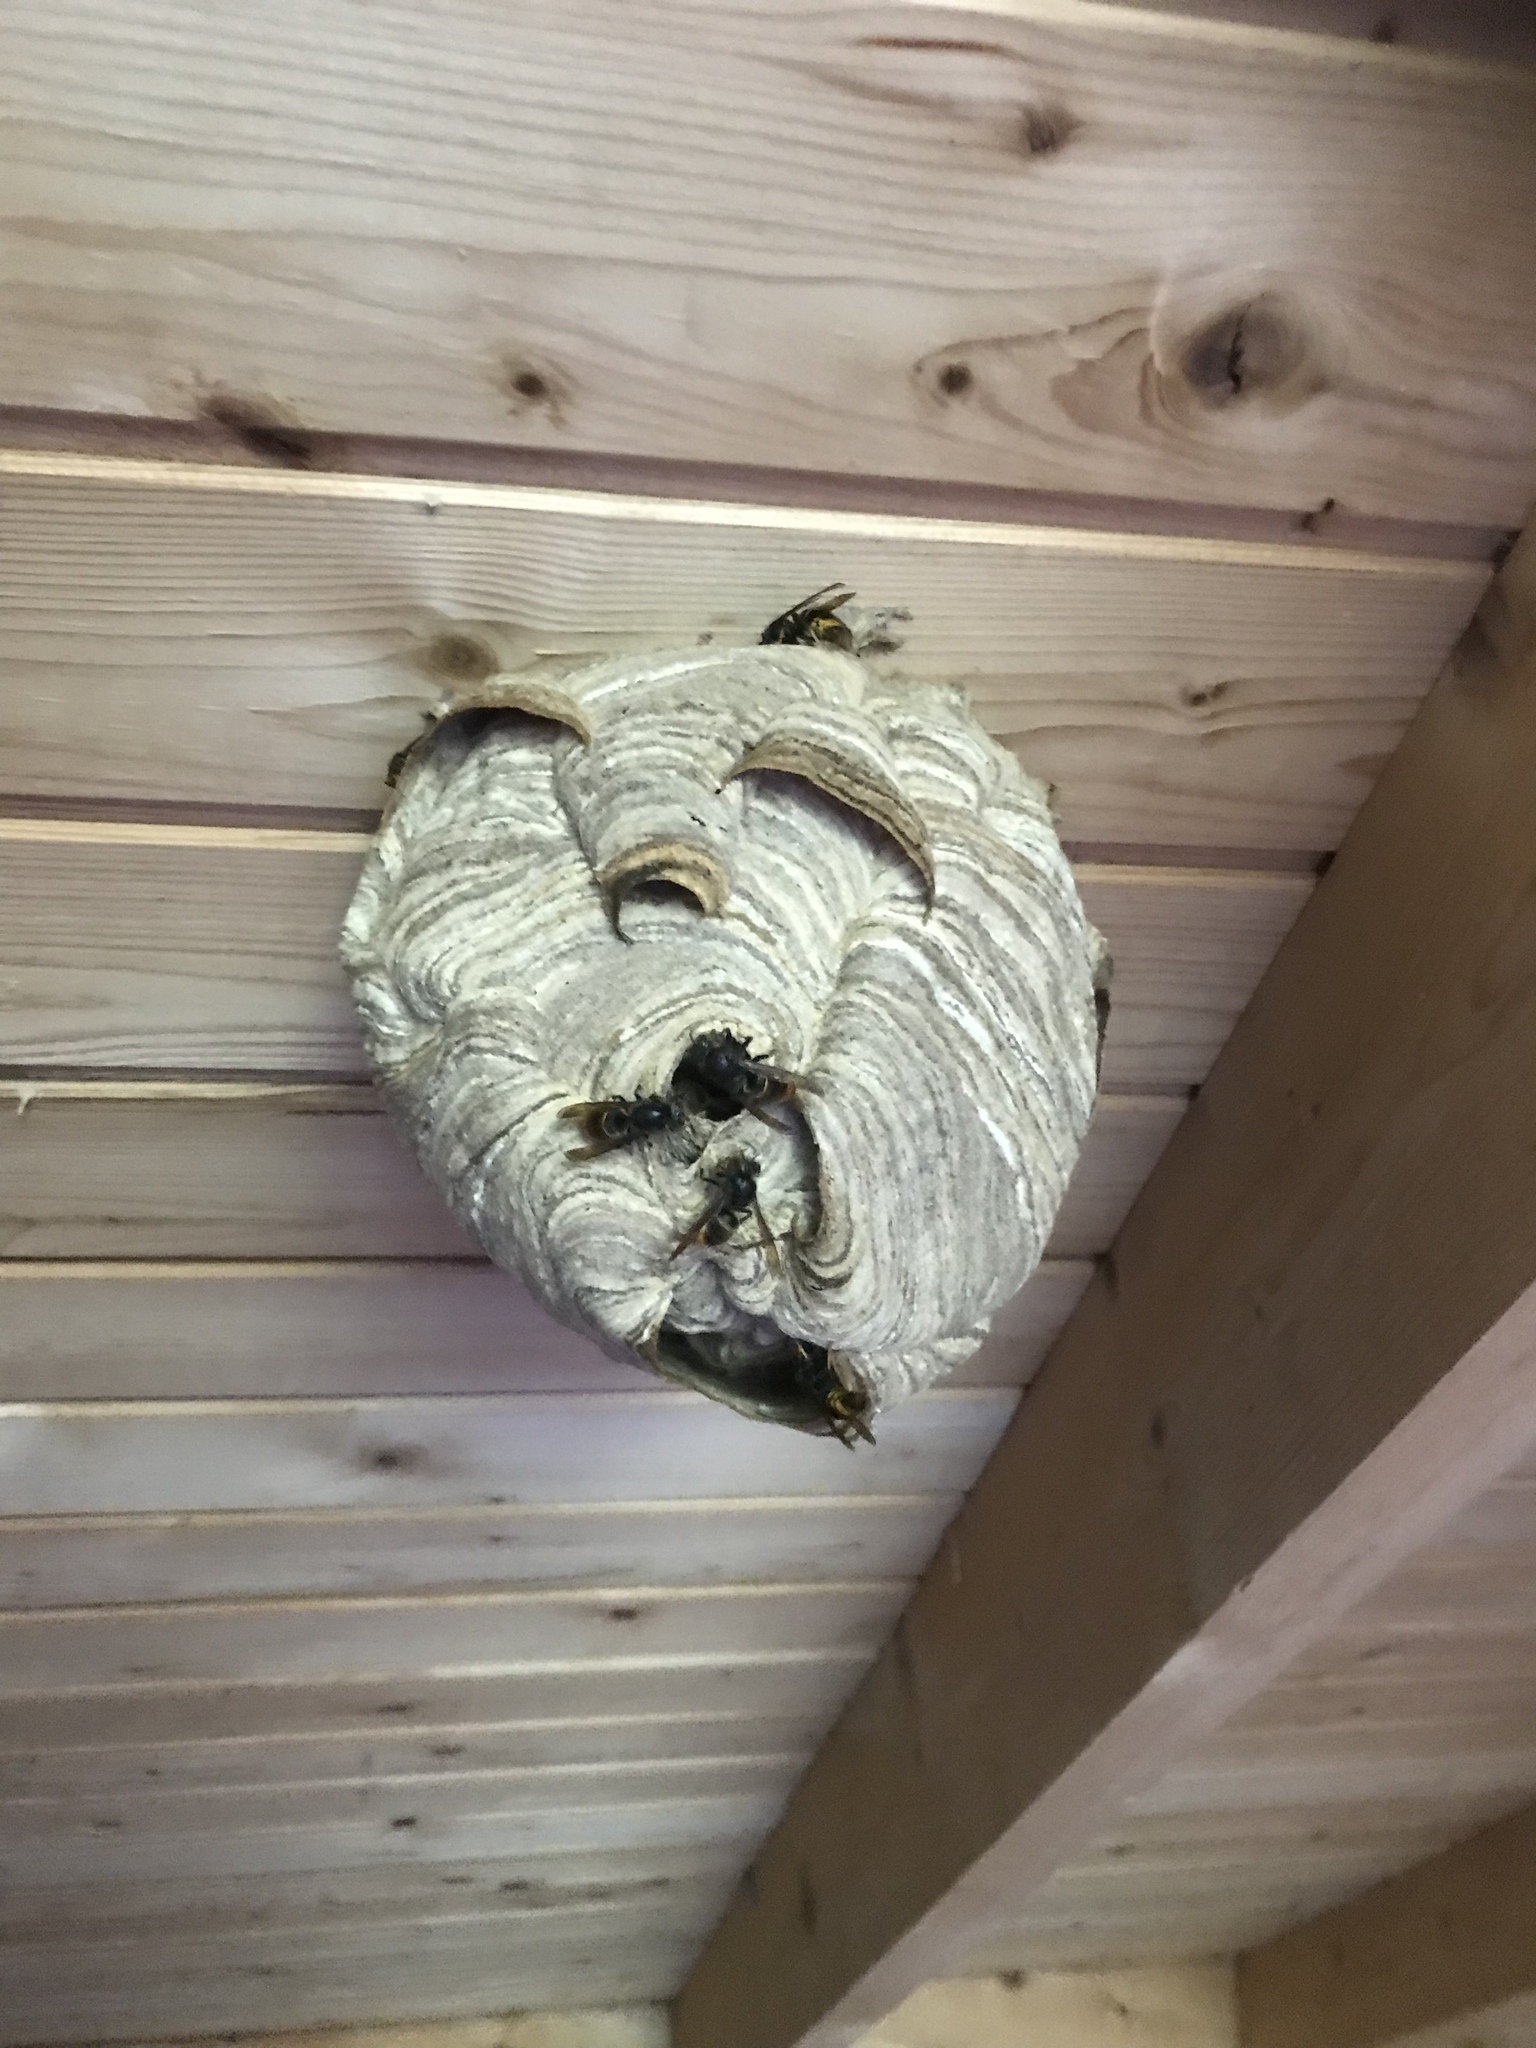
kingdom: Animalia
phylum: Arthropoda
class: Insecta
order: Hymenoptera
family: Vespidae
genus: Vespa
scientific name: Vespa velutina
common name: Asian hornet
